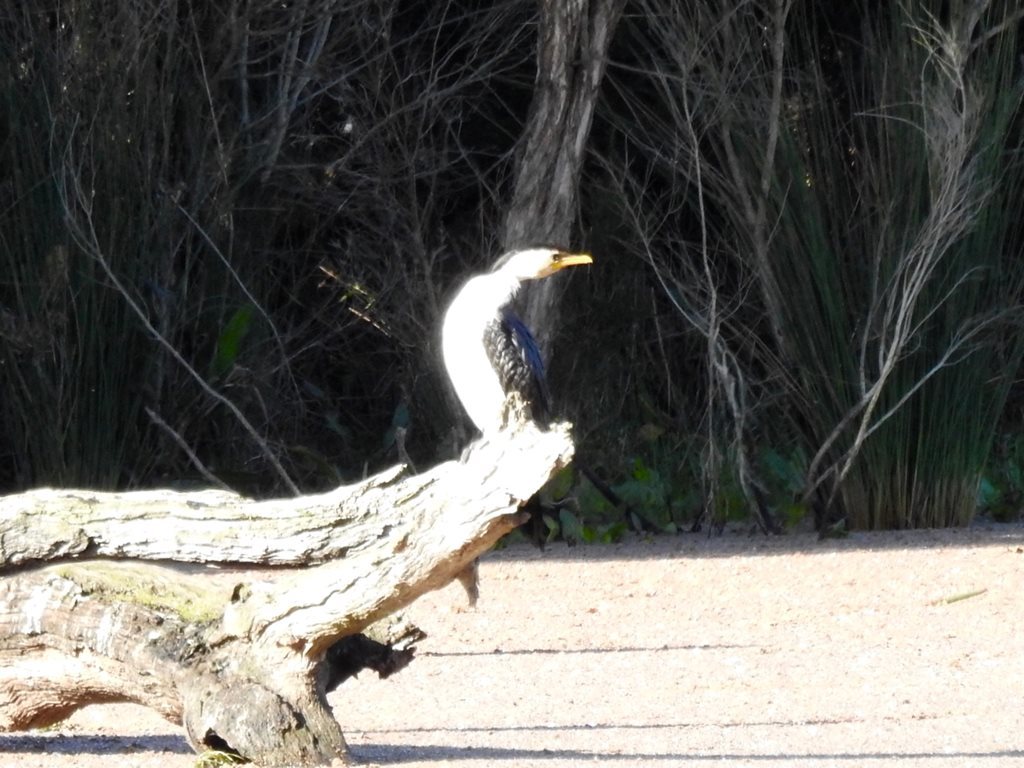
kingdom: Animalia
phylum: Chordata
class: Aves
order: Suliformes
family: Phalacrocoracidae
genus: Microcarbo
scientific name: Microcarbo melanoleucos
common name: Little pied cormorant
